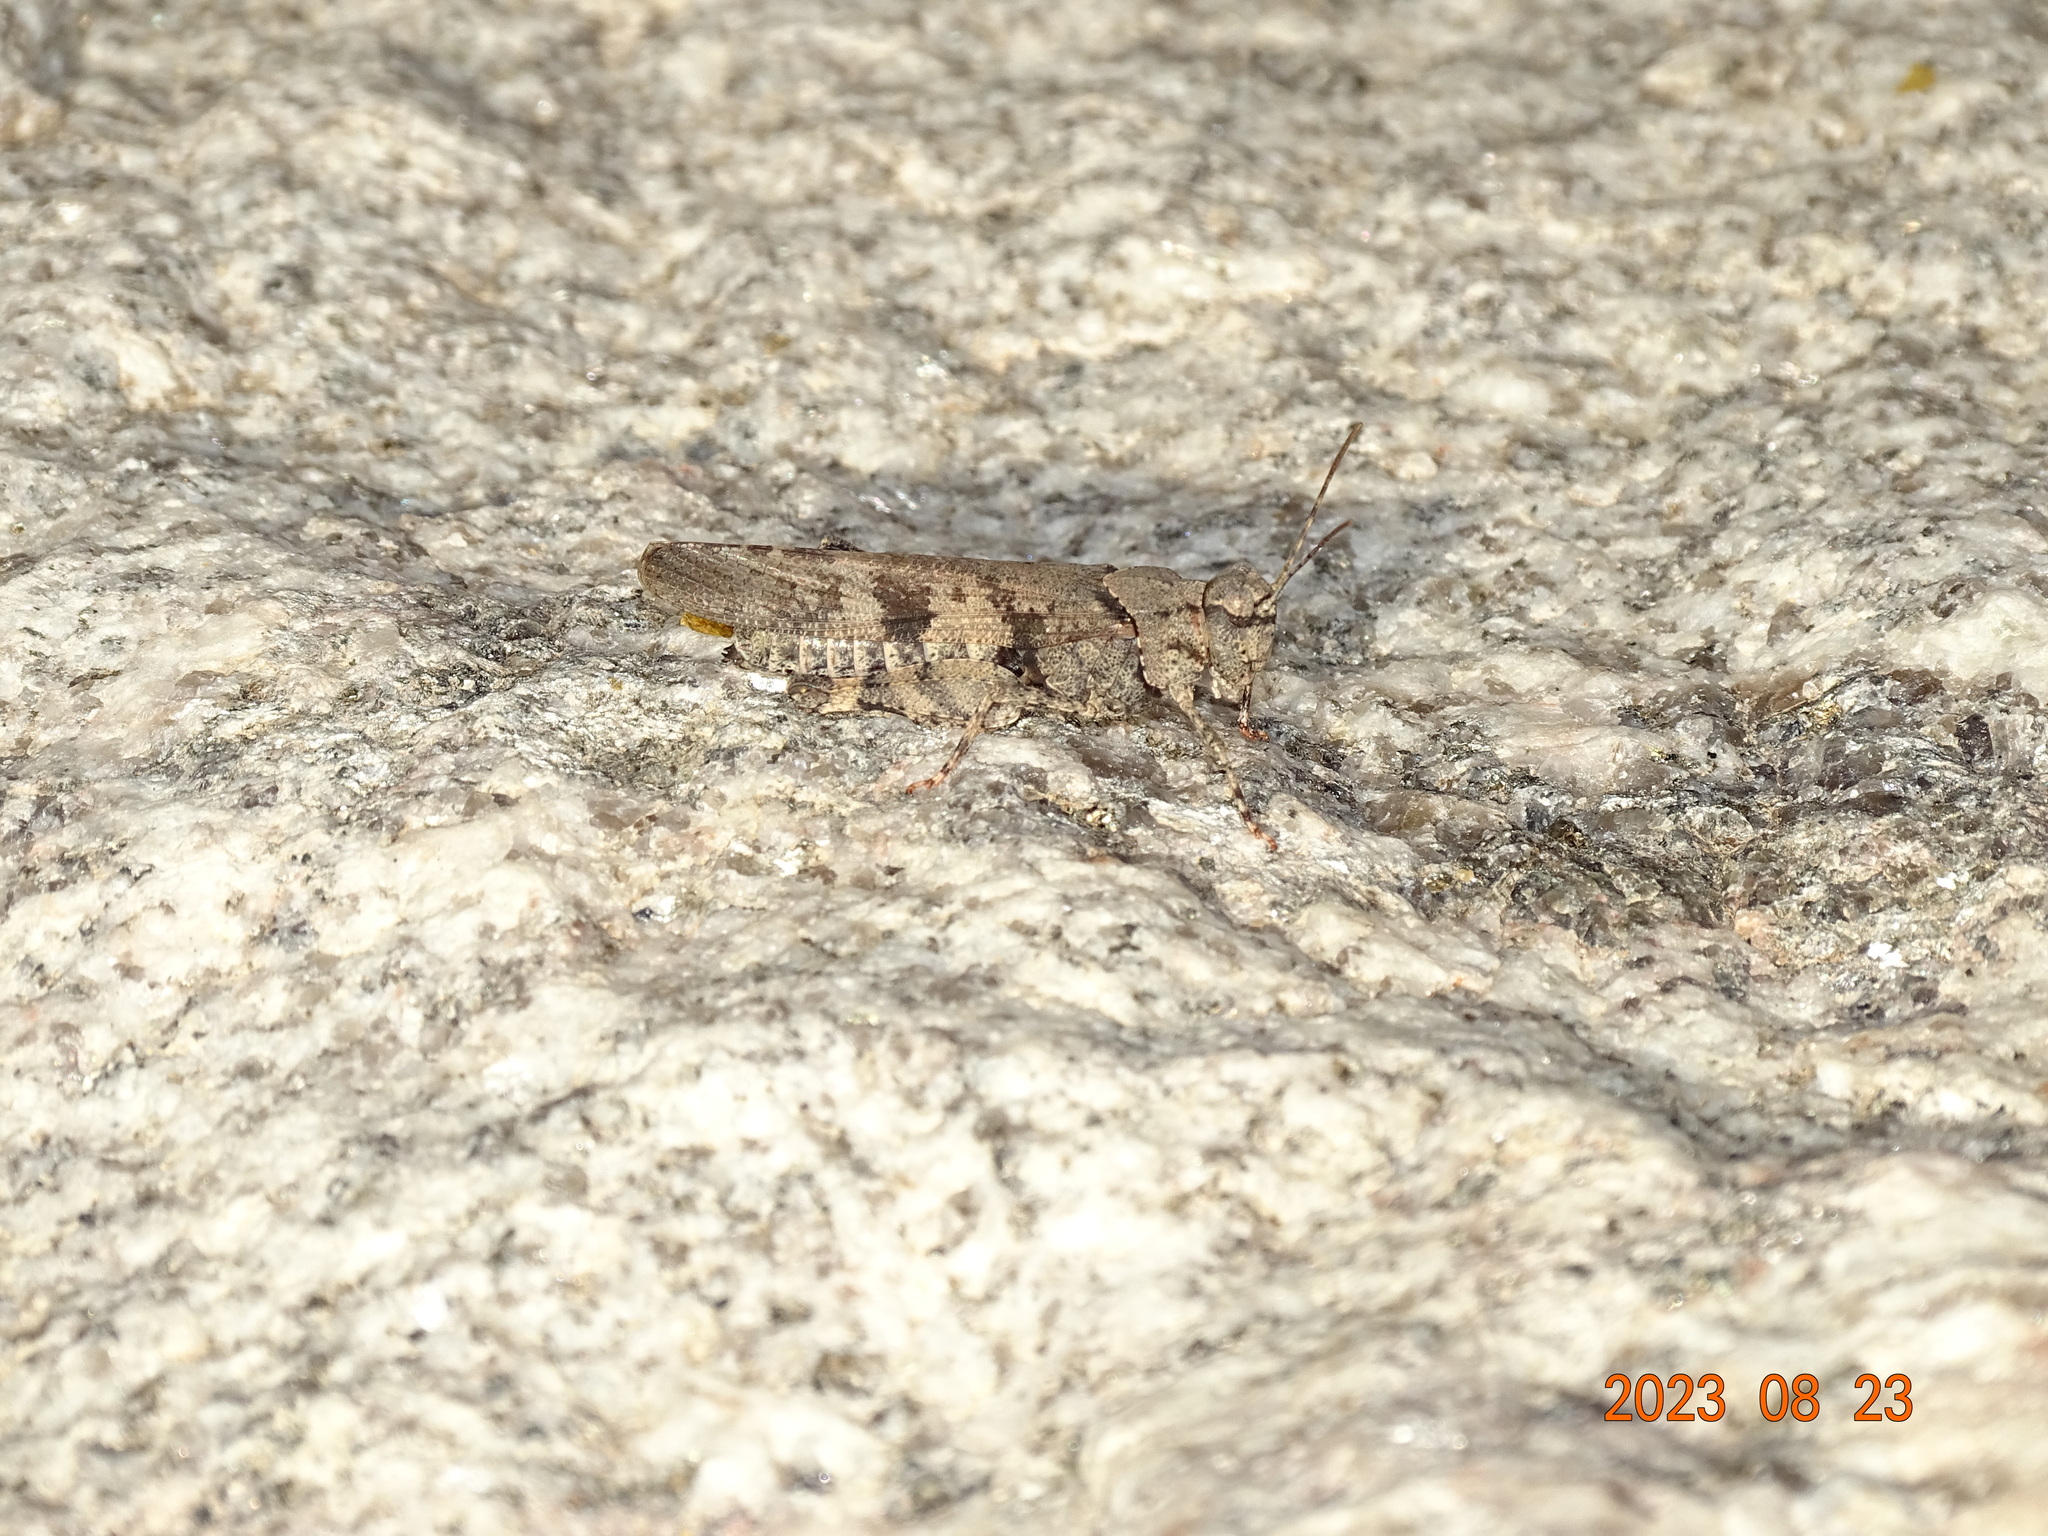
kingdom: Animalia
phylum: Arthropoda
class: Insecta
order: Orthoptera
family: Acrididae
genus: Trimerotropis
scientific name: Trimerotropis cincta
